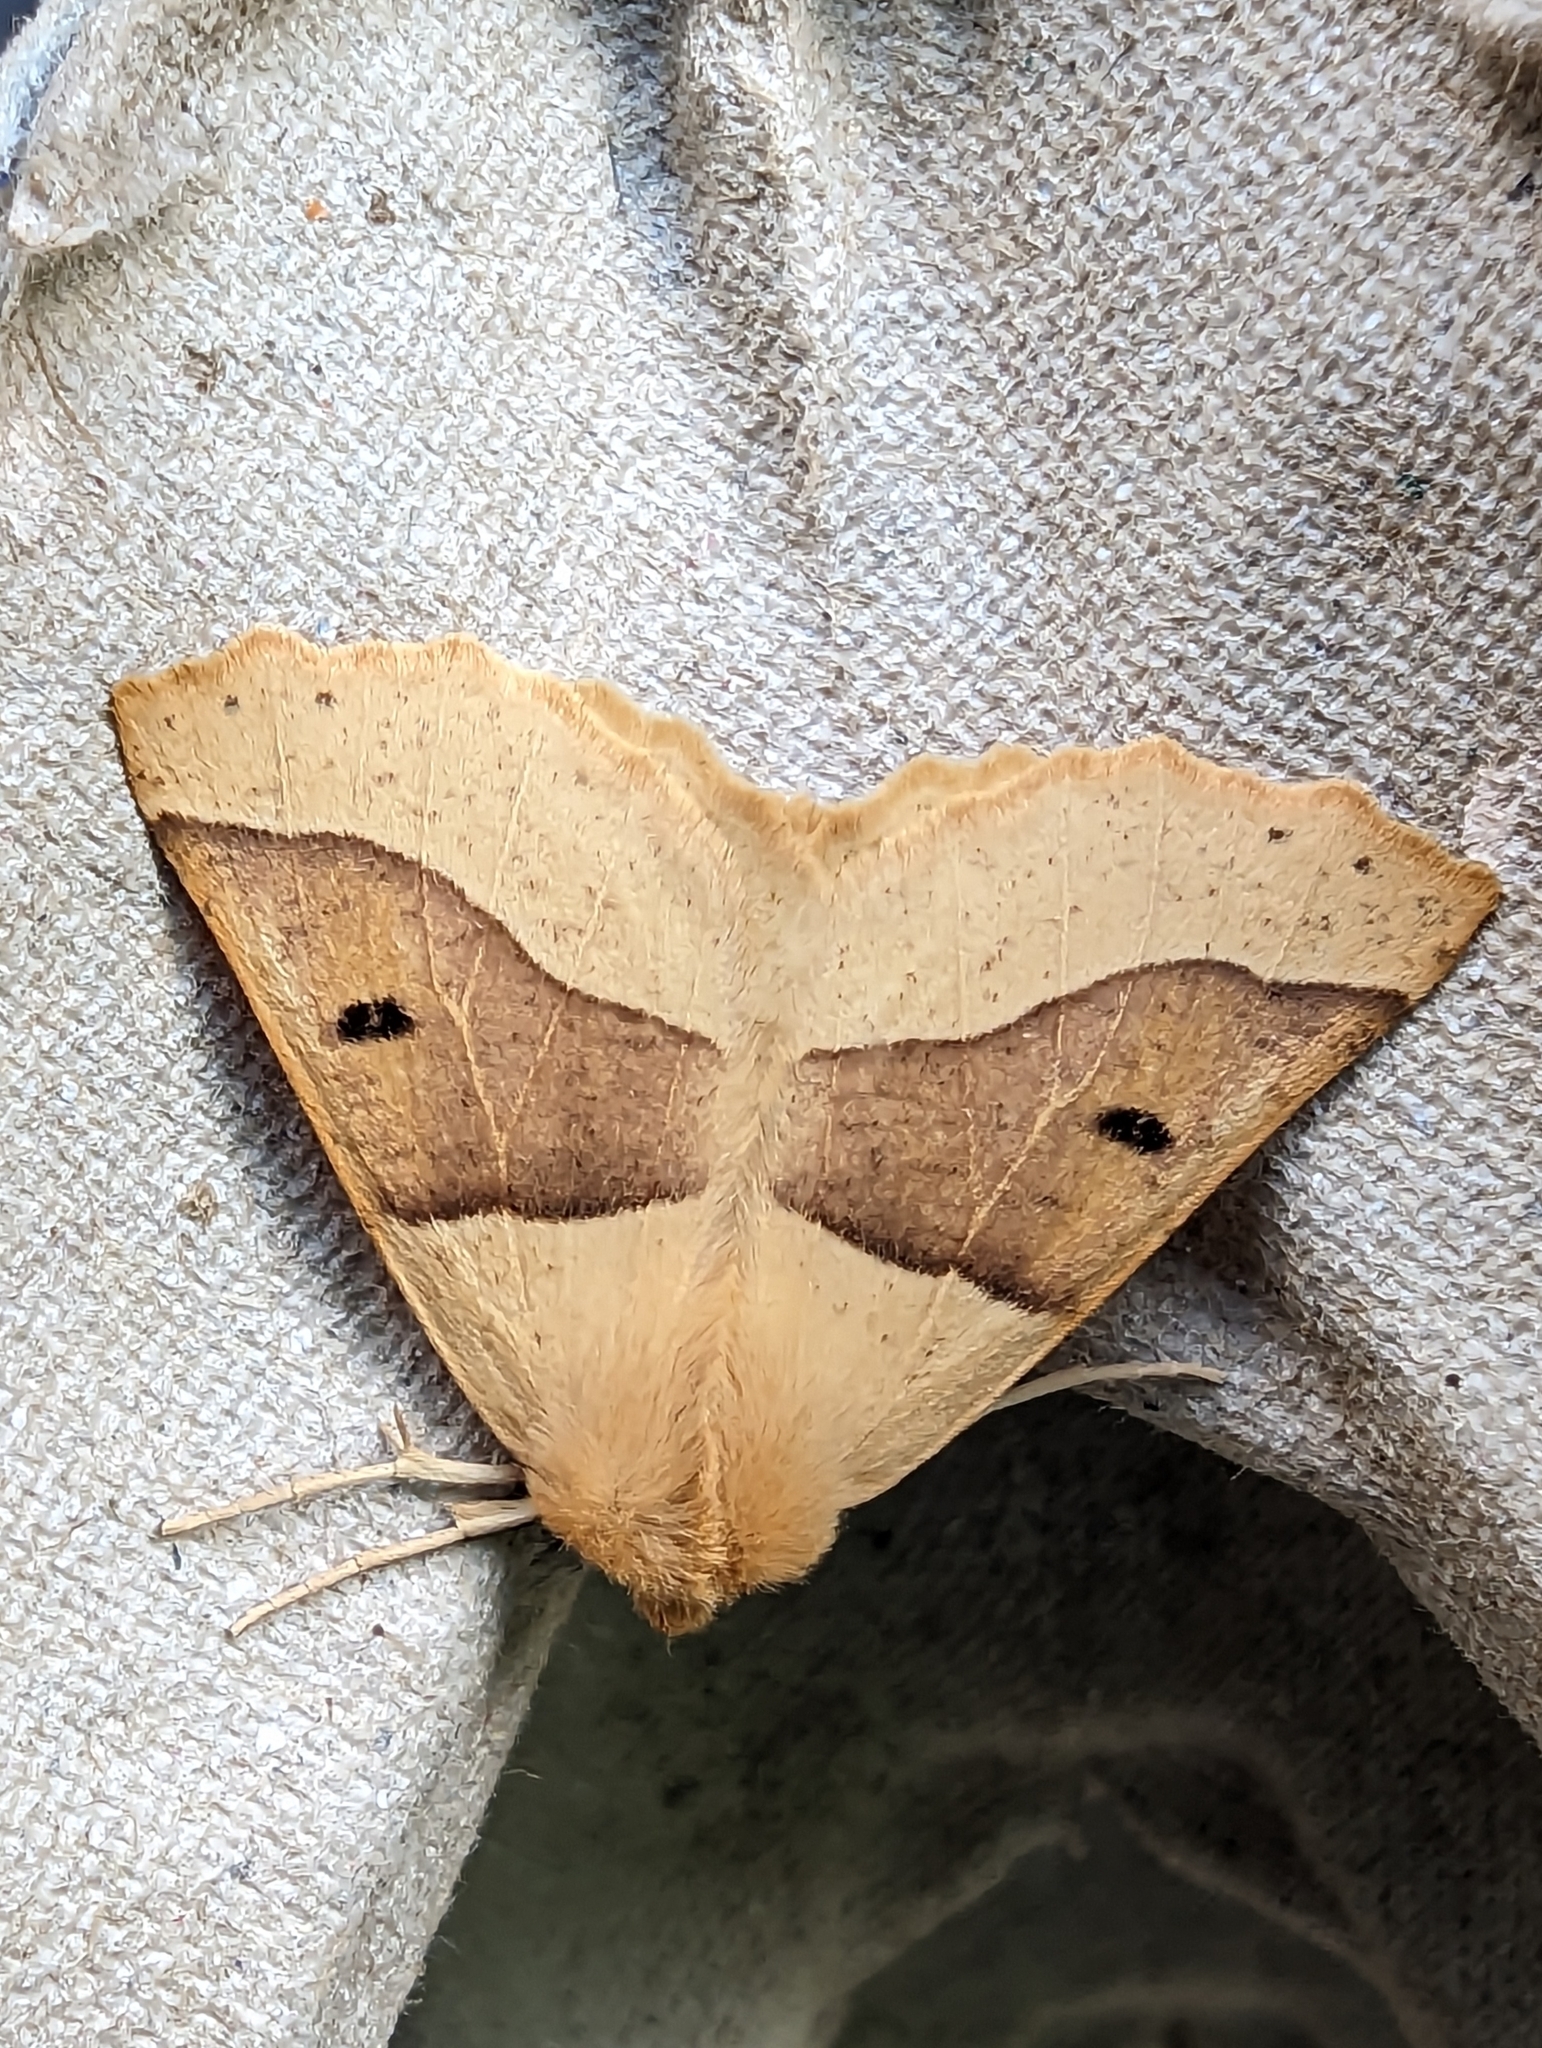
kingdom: Animalia
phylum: Arthropoda
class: Insecta
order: Lepidoptera
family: Geometridae
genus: Crocallis
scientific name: Crocallis elinguaria
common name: Scalloped oak
